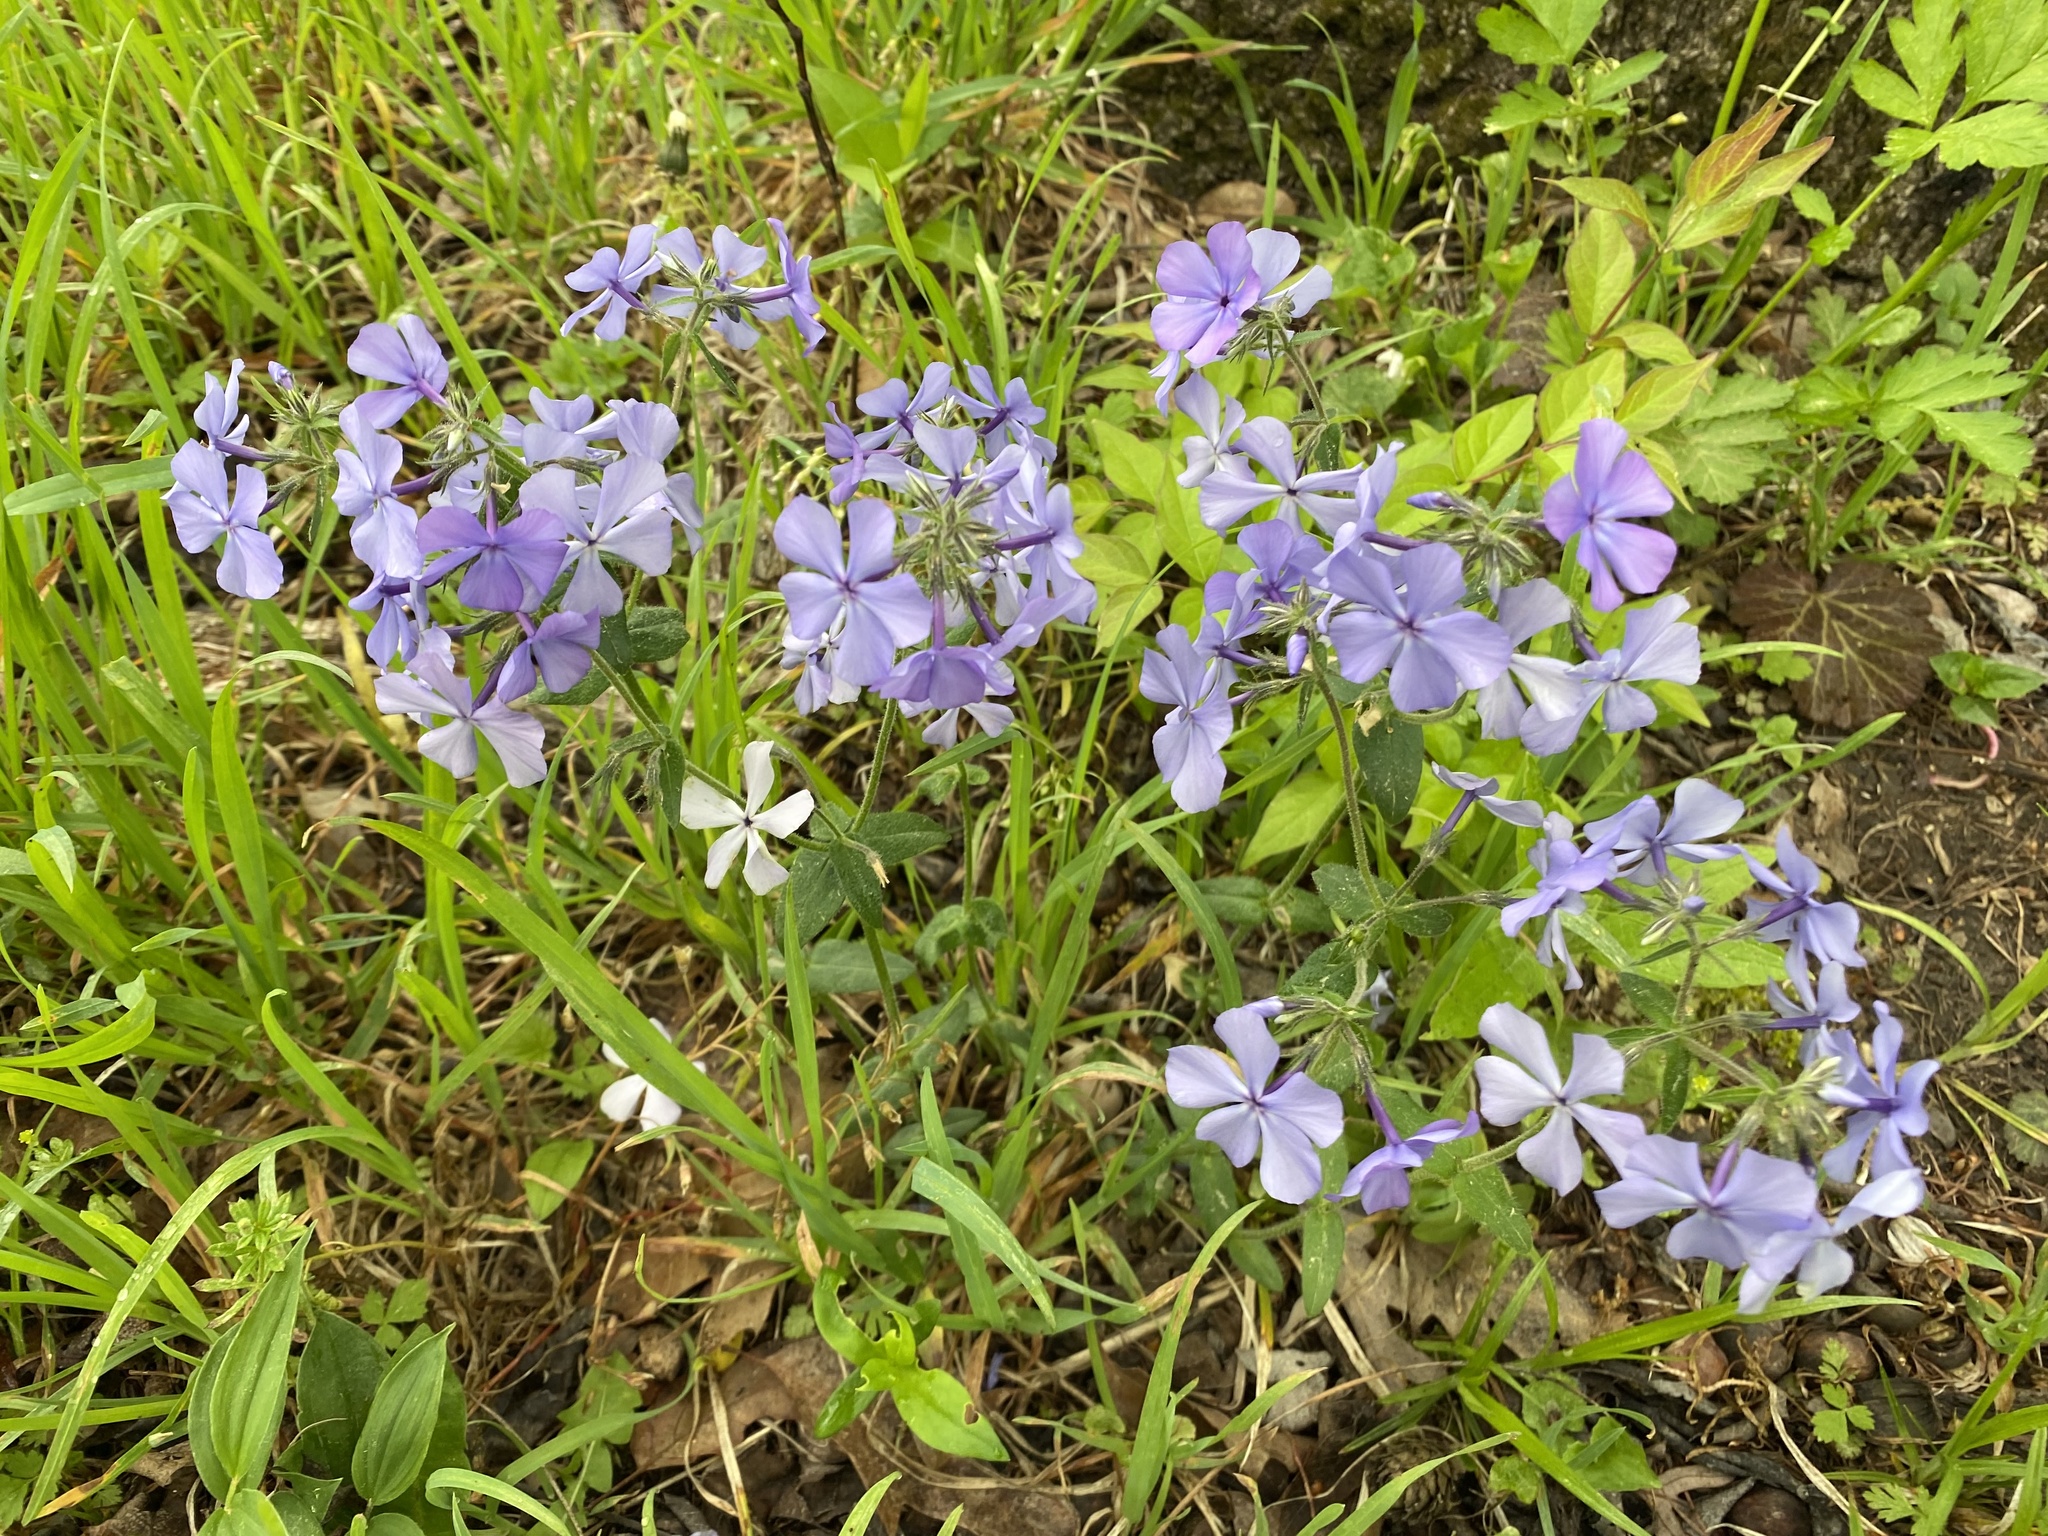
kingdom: Plantae
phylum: Tracheophyta
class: Magnoliopsida
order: Ericales
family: Polemoniaceae
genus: Phlox
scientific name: Phlox divaricata
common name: Blue phlox
